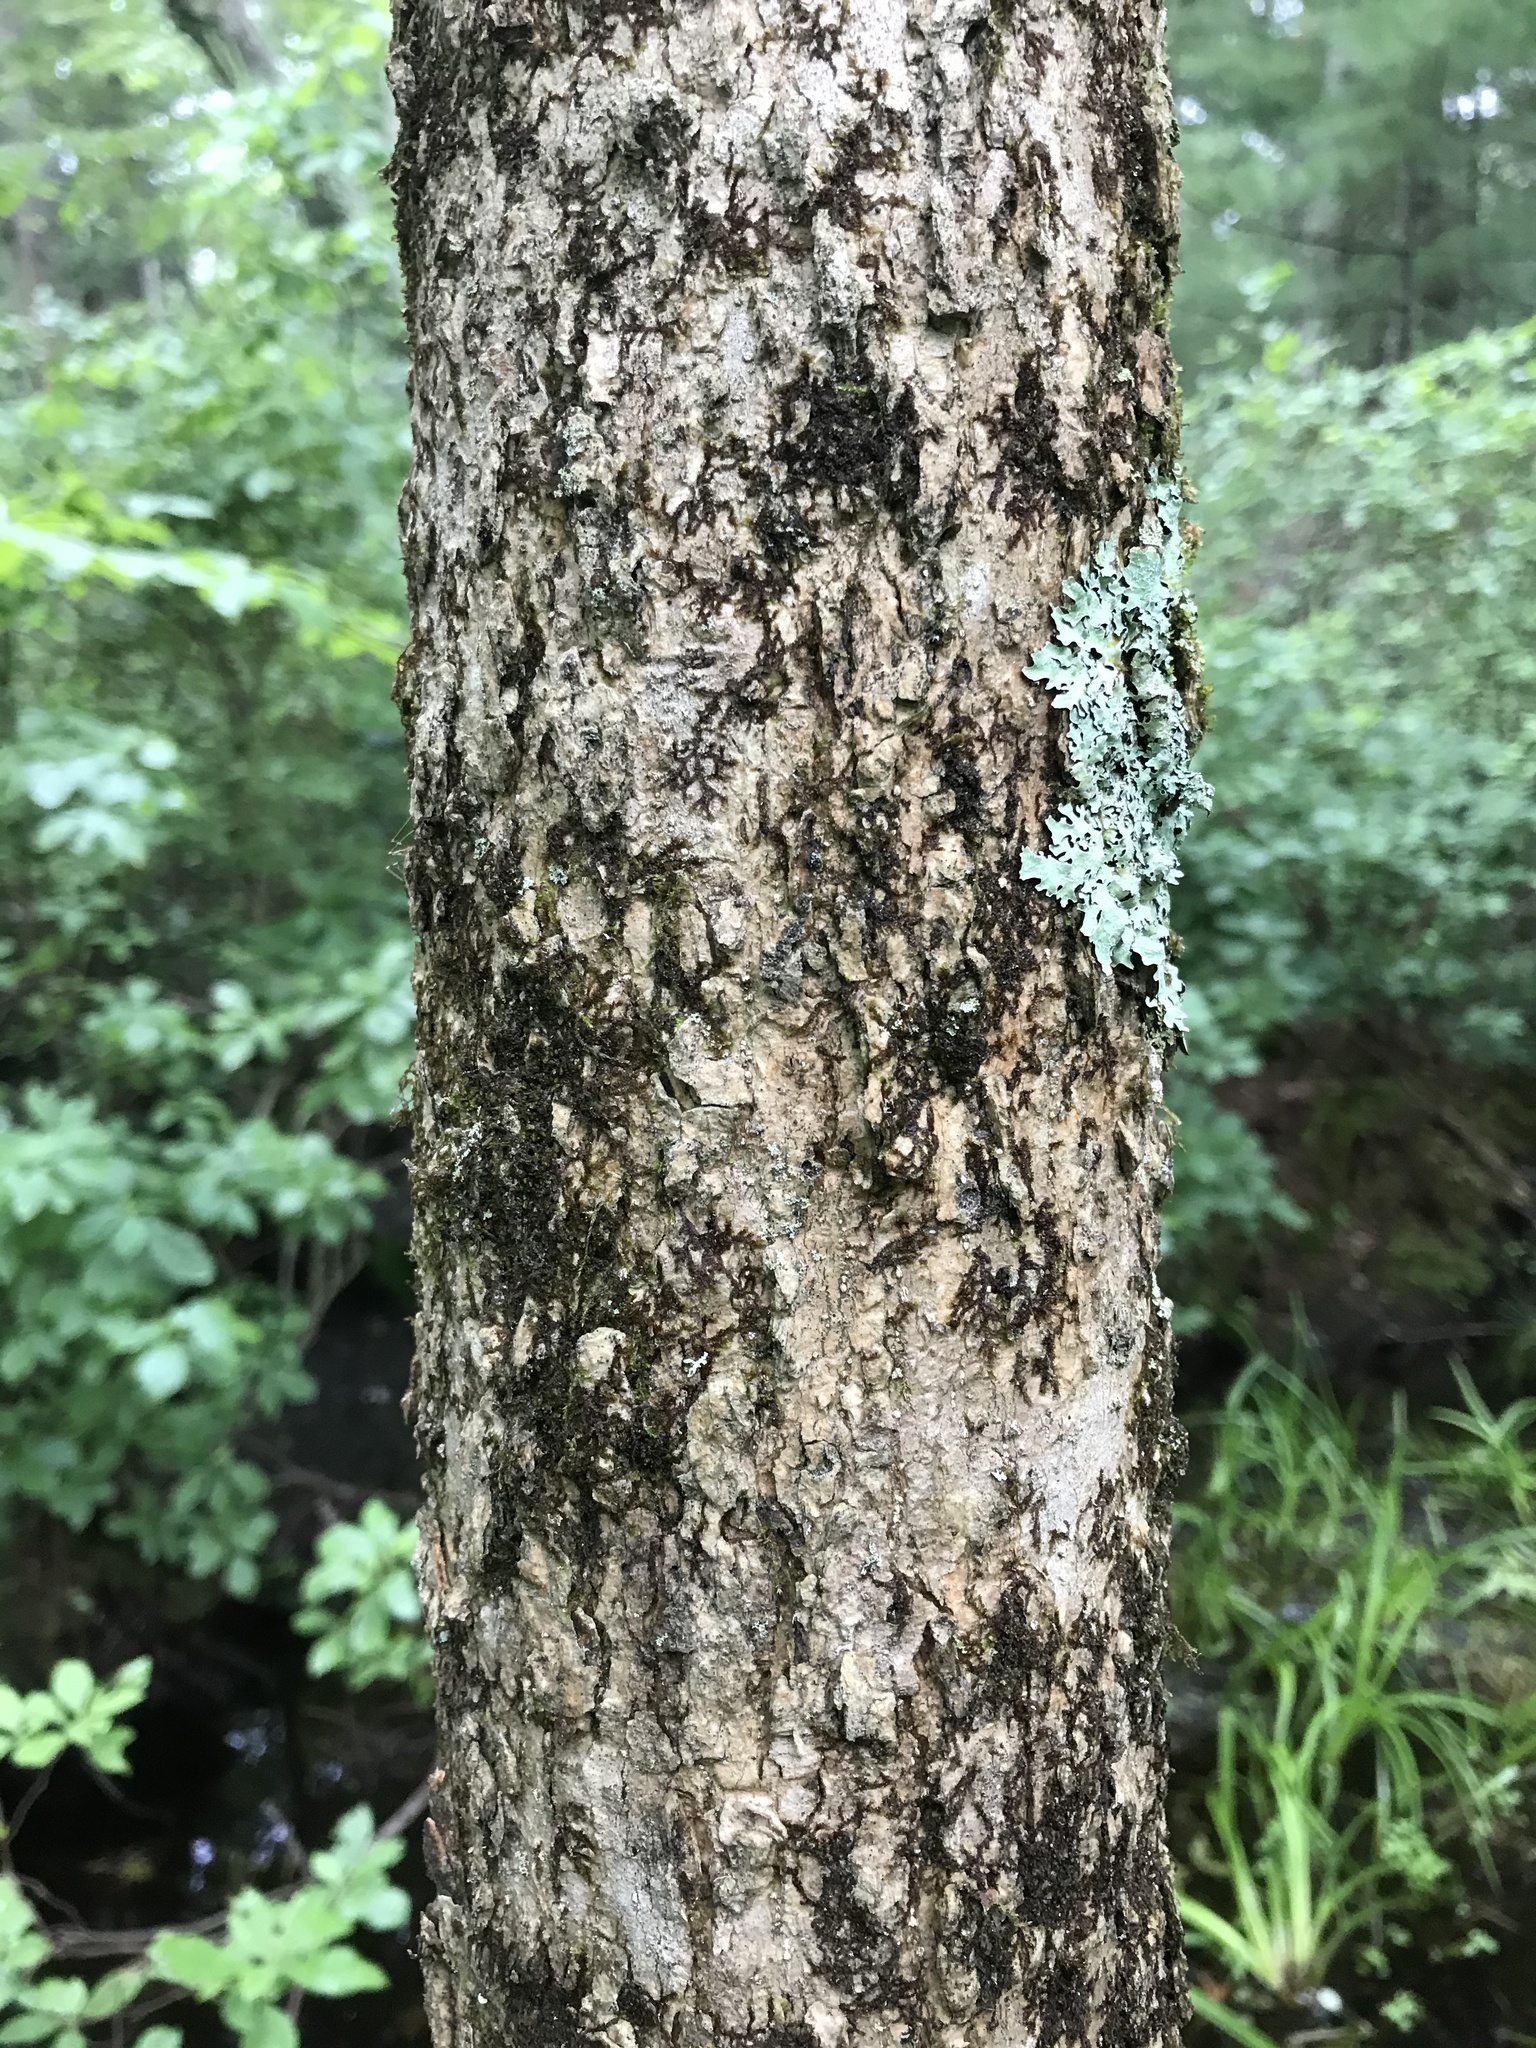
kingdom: Plantae
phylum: Tracheophyta
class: Magnoliopsida
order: Lamiales
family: Oleaceae
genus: Fraxinus
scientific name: Fraxinus nigra
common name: Black ash
